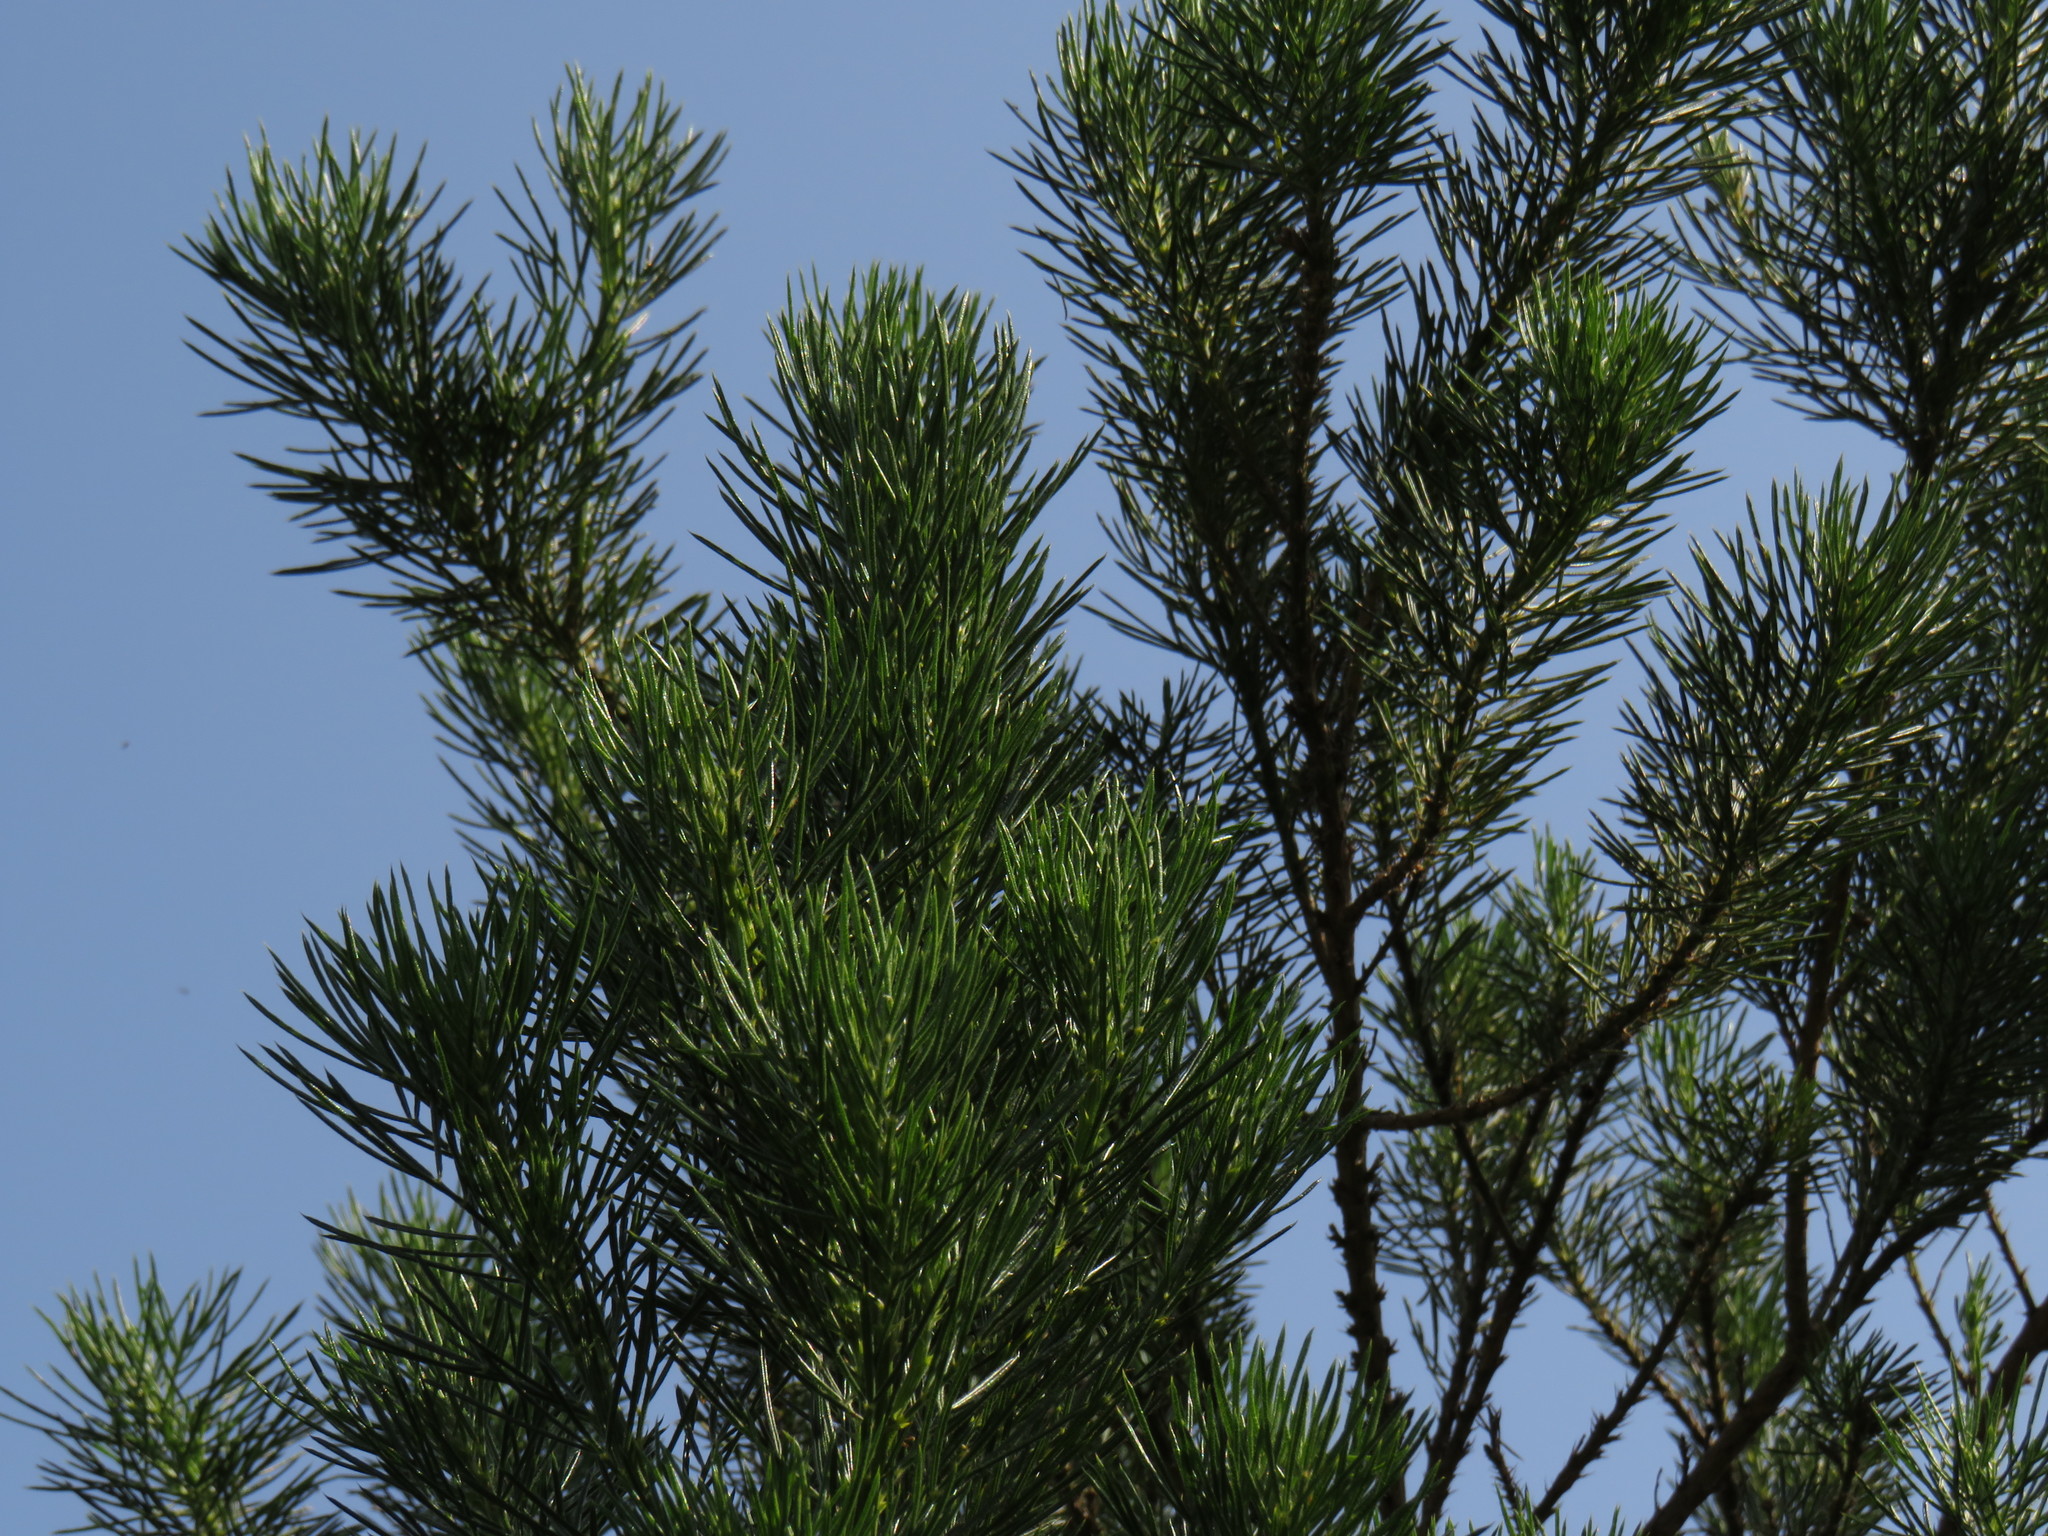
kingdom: Plantae
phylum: Tracheophyta
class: Magnoliopsida
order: Fabales
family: Fabaceae
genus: Psoralea
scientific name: Psoralea pinnata
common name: African scurfpea
